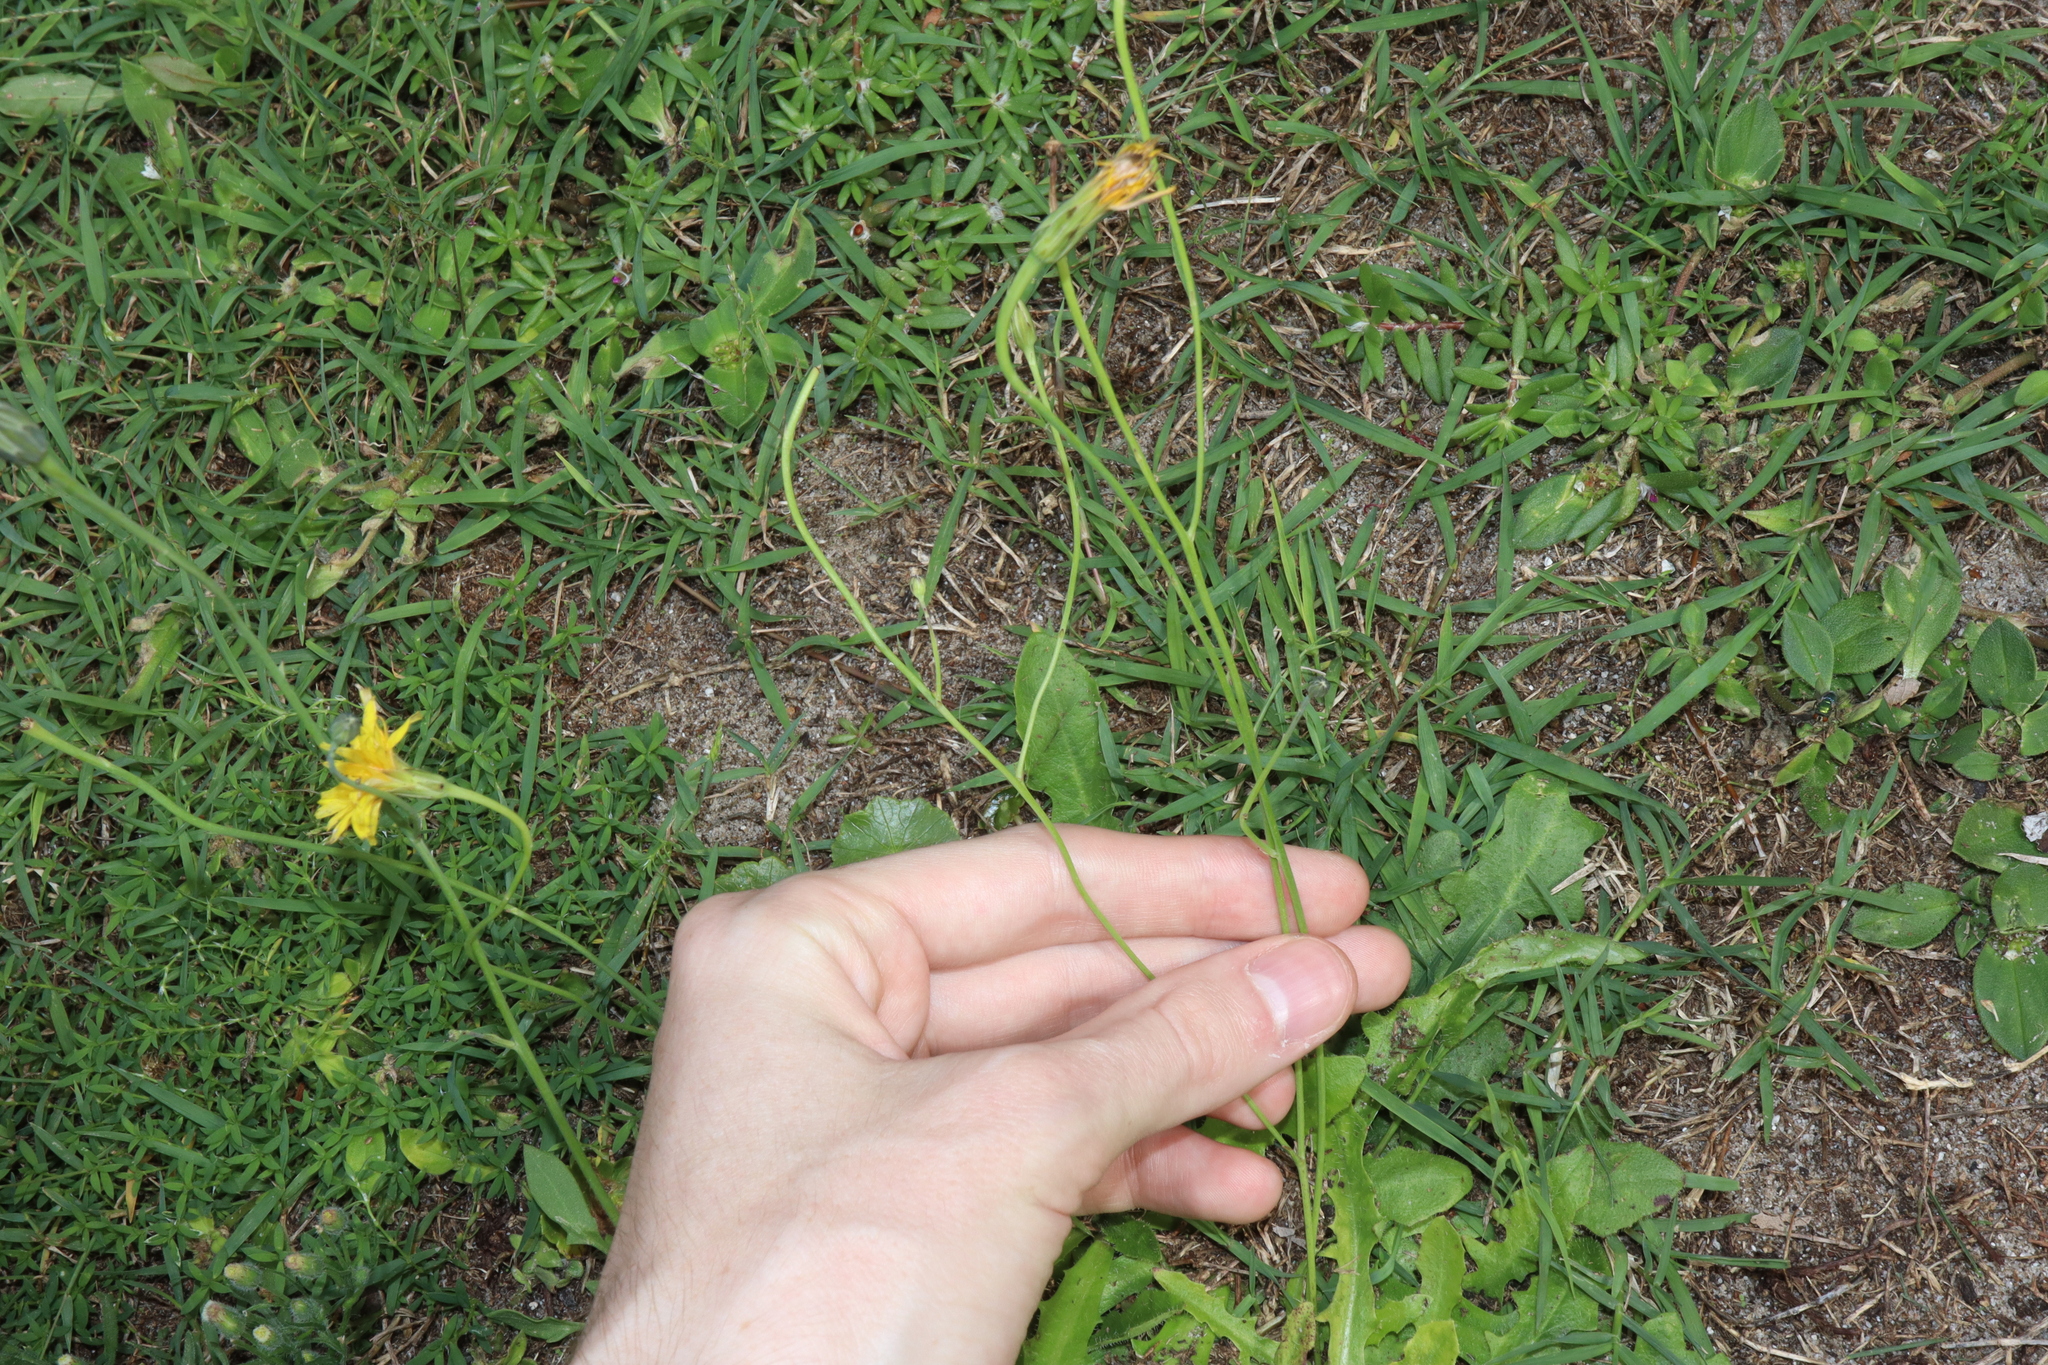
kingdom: Plantae
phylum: Tracheophyta
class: Magnoliopsida
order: Asterales
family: Asteraceae
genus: Hypochaeris
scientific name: Hypochaeris radicata
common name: Flatweed
